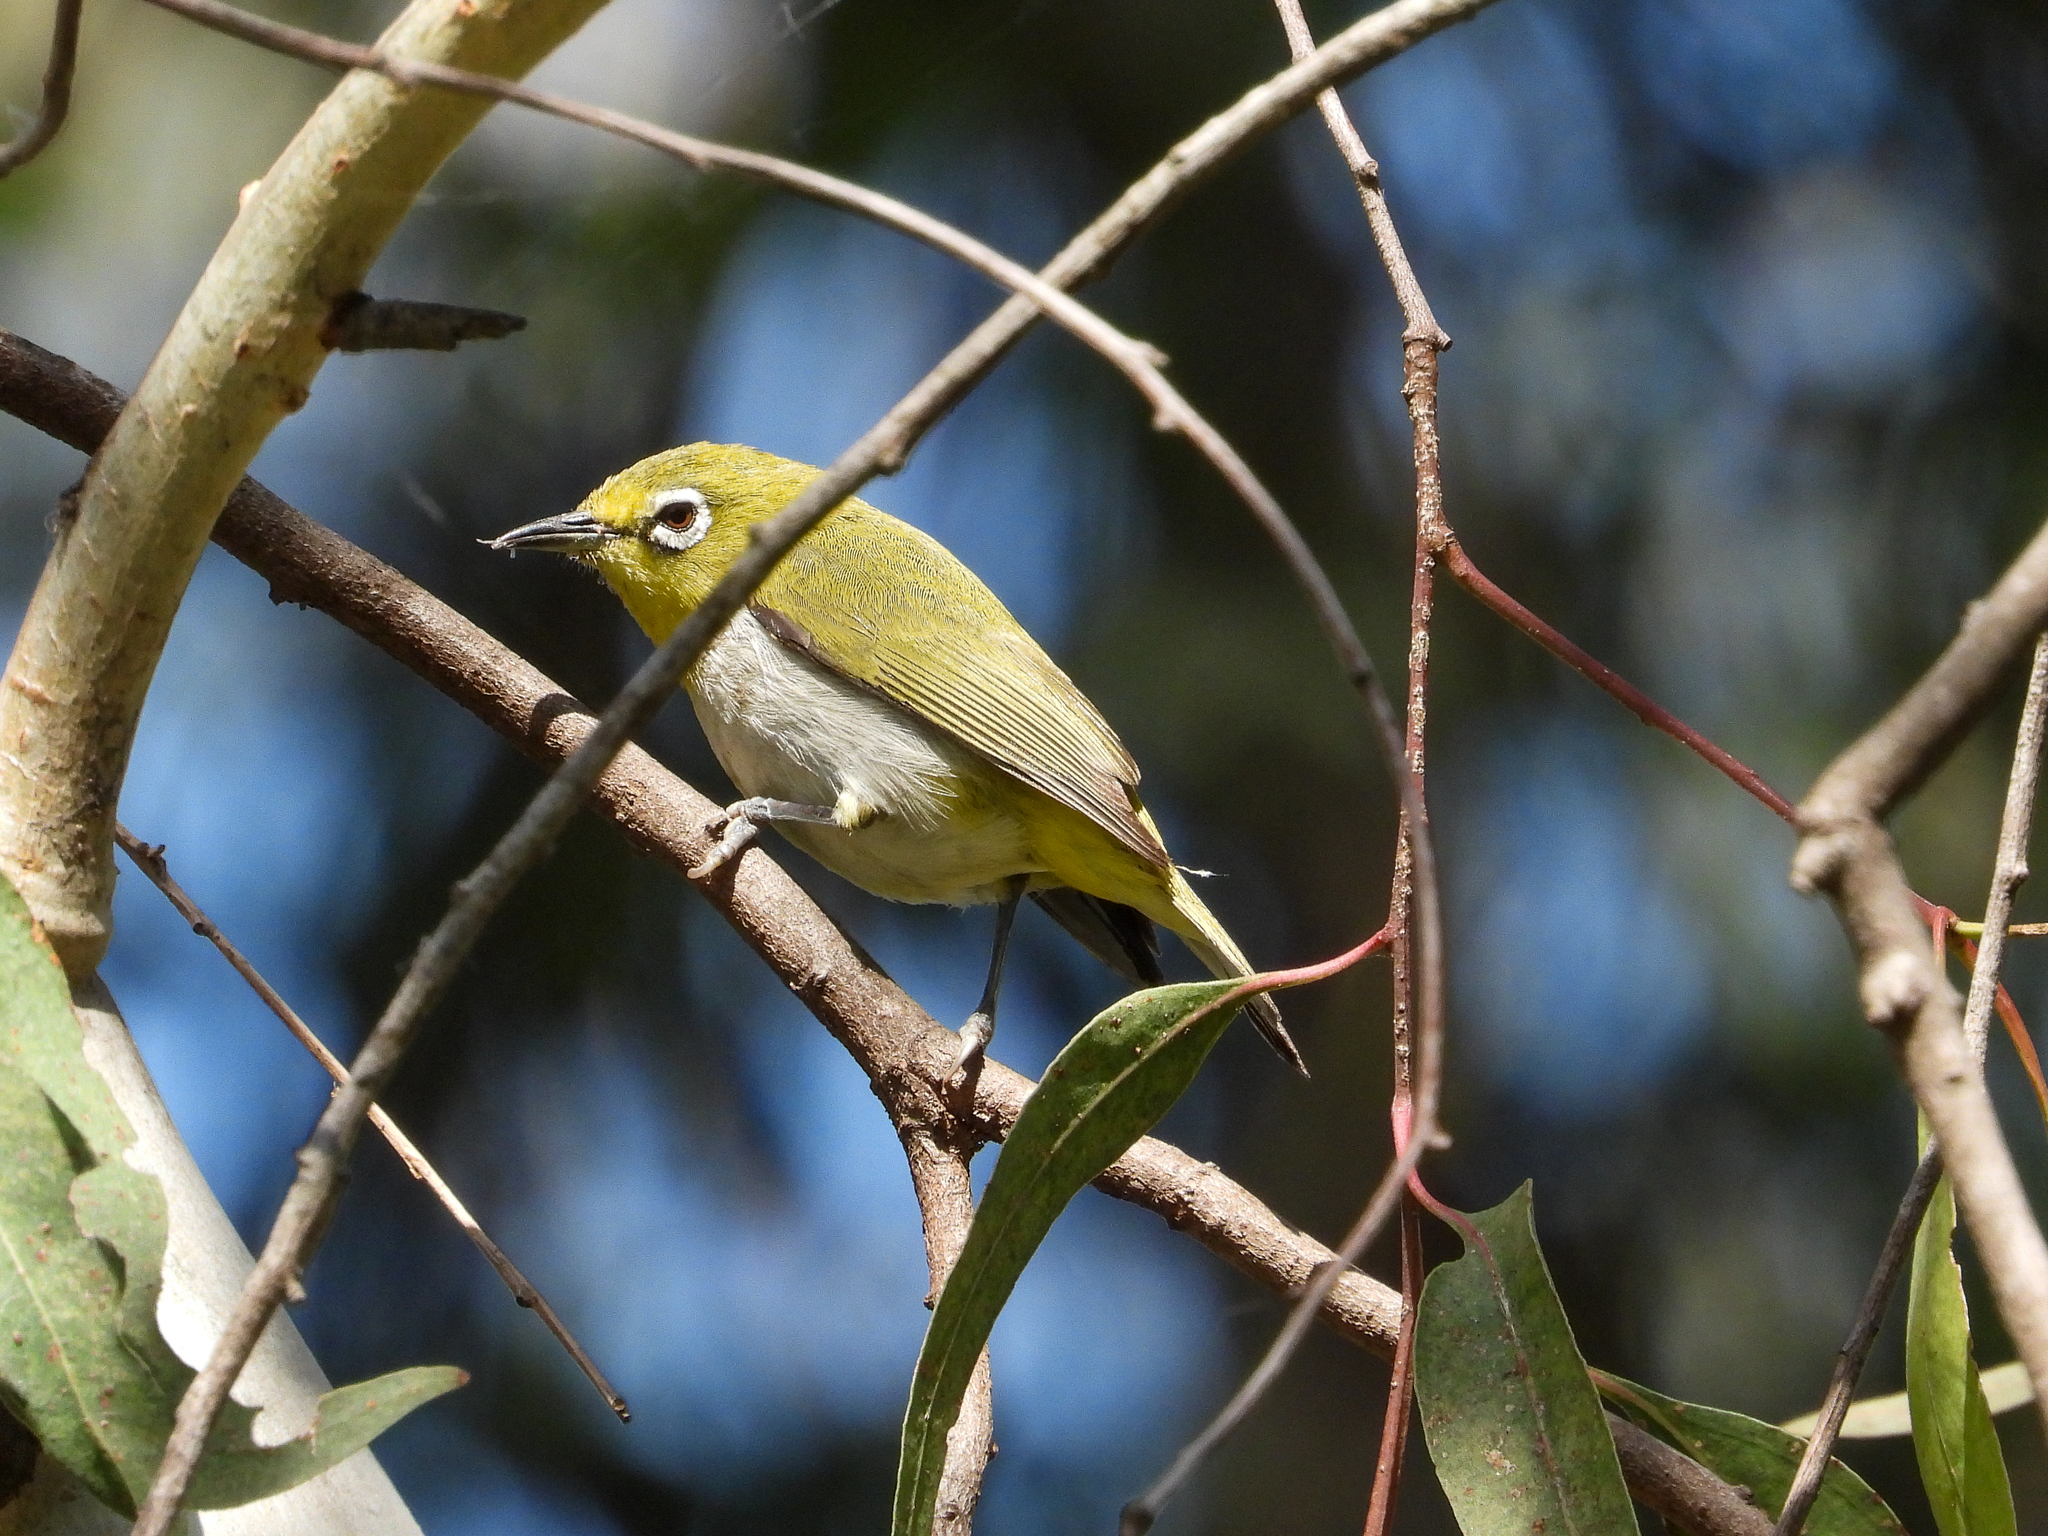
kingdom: Animalia
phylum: Chordata
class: Aves
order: Passeriformes
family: Zosteropidae
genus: Zosterops
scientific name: Zosterops simplex
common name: Swinhoe's white-eye
